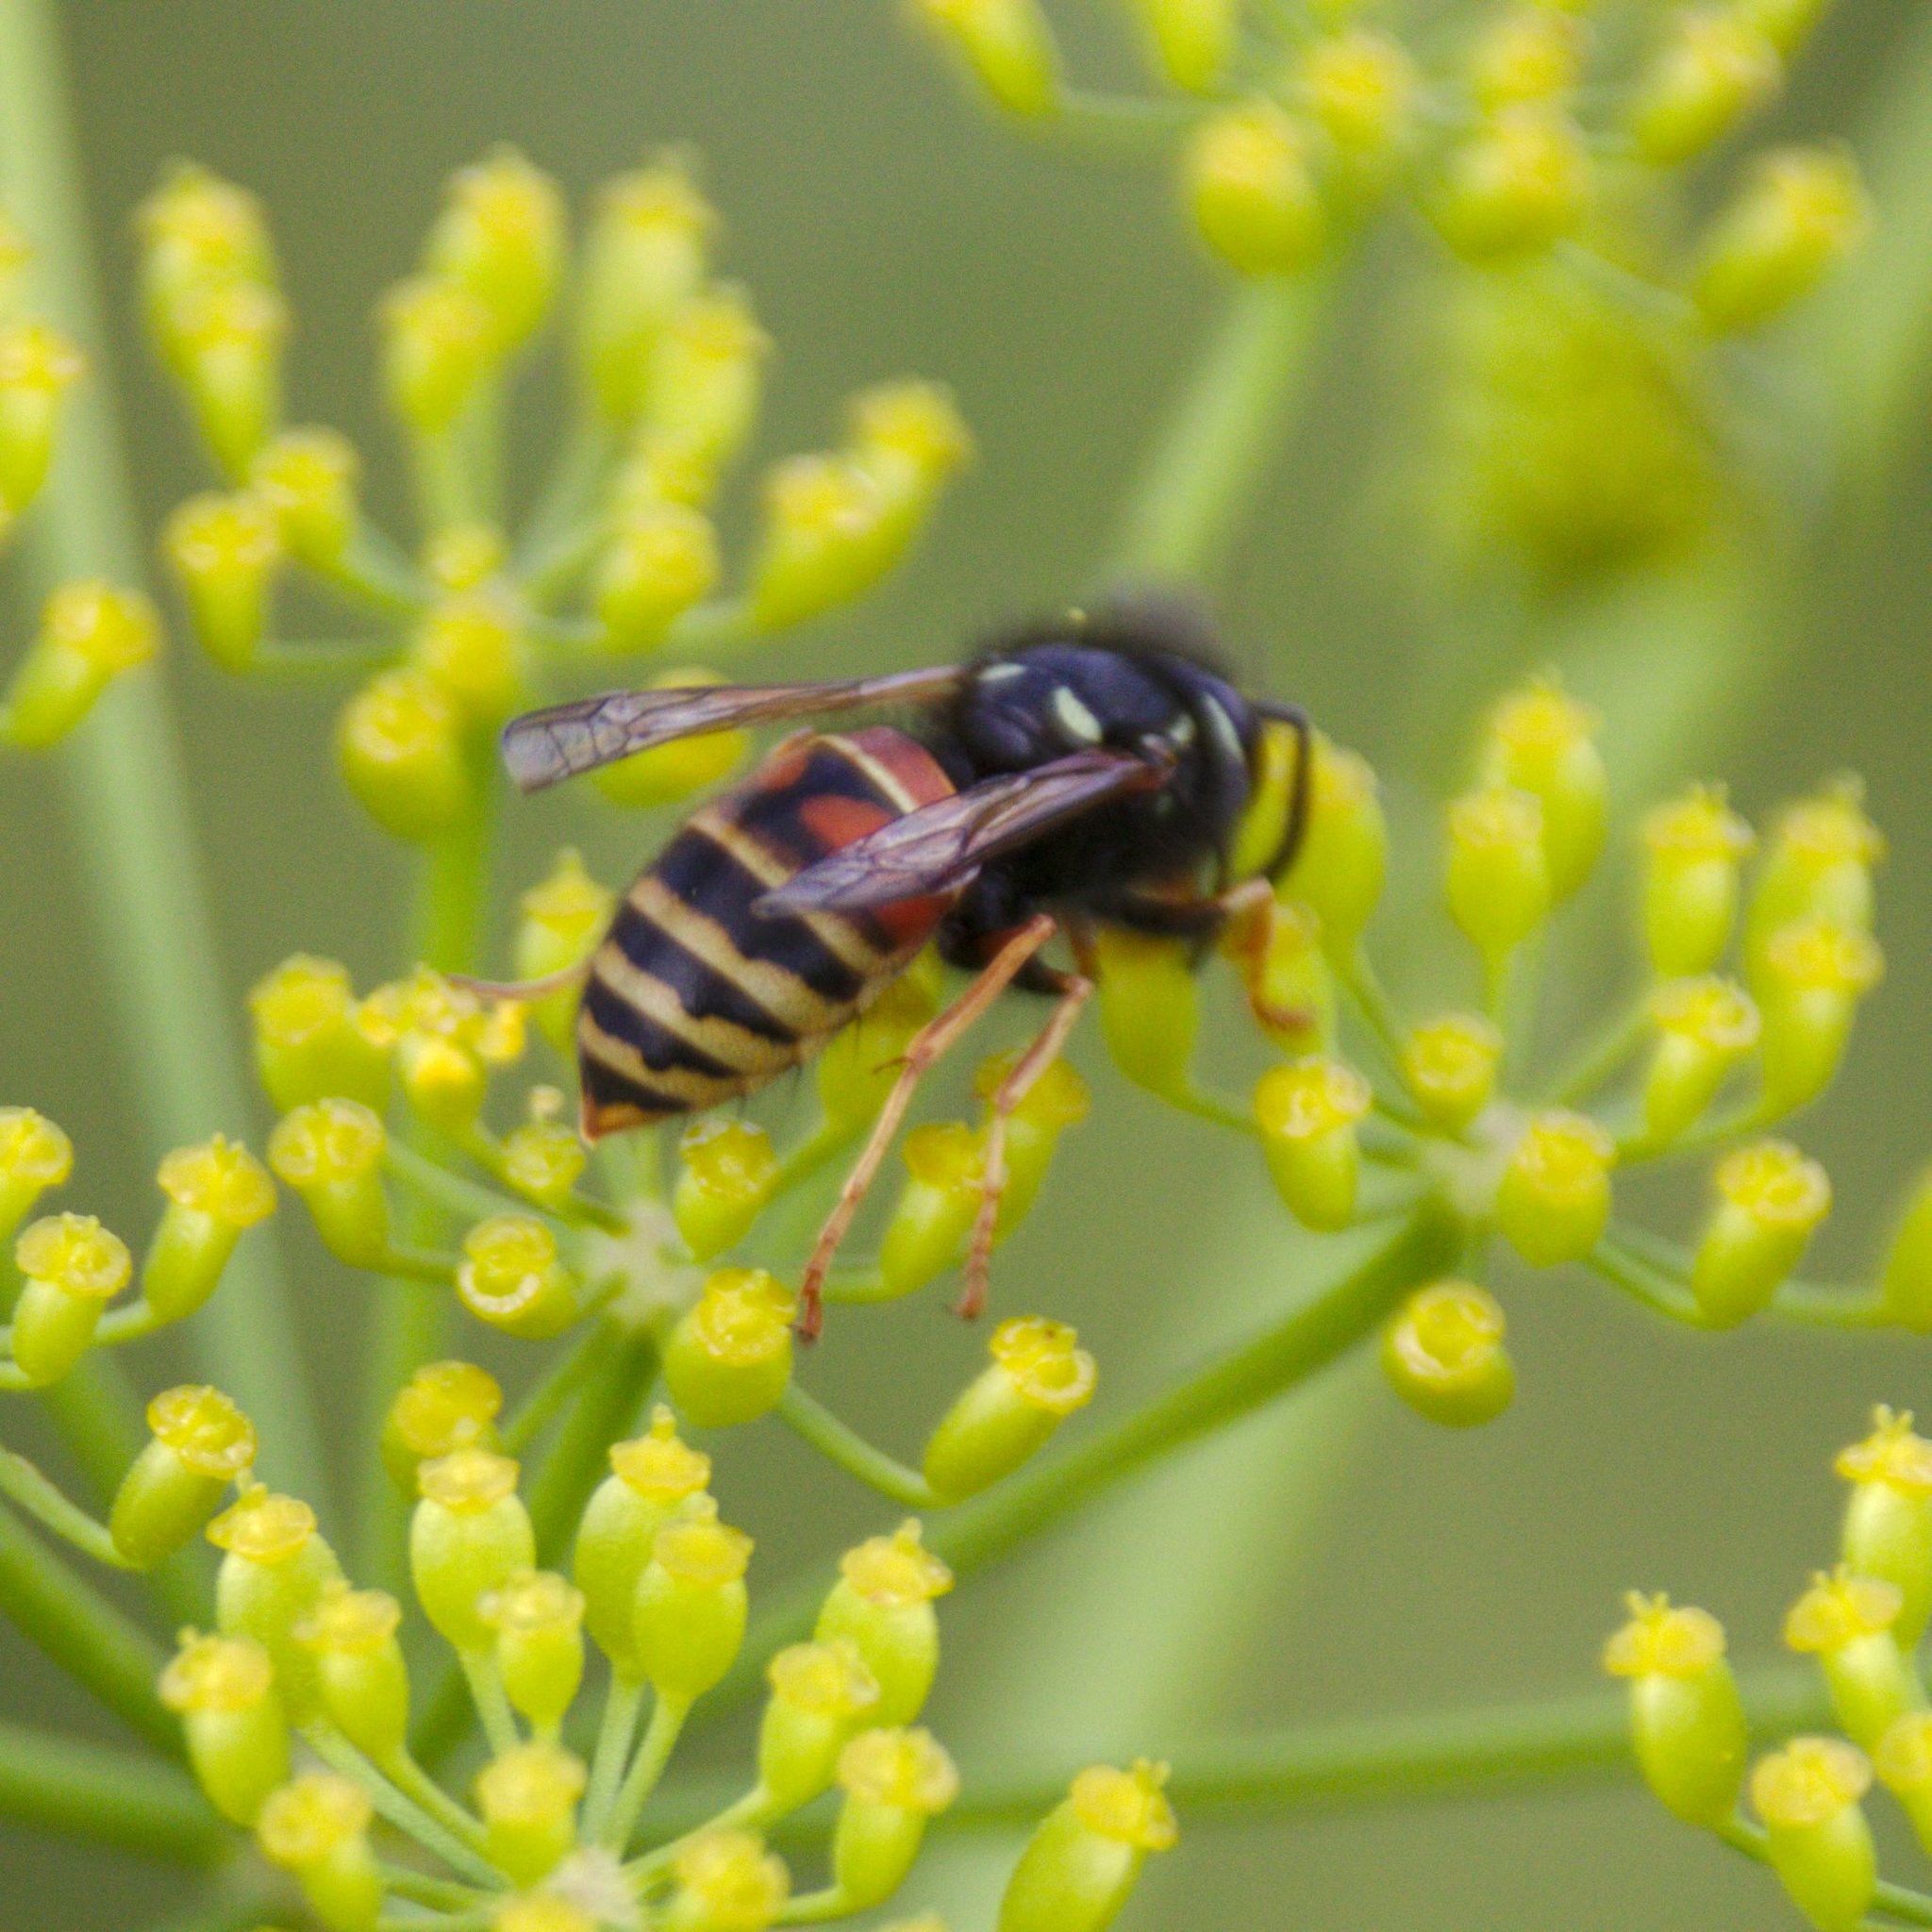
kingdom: Animalia
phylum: Arthropoda
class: Insecta
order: Hymenoptera
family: Vespidae
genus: Vespula
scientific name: Vespula rufa
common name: Red wasp
